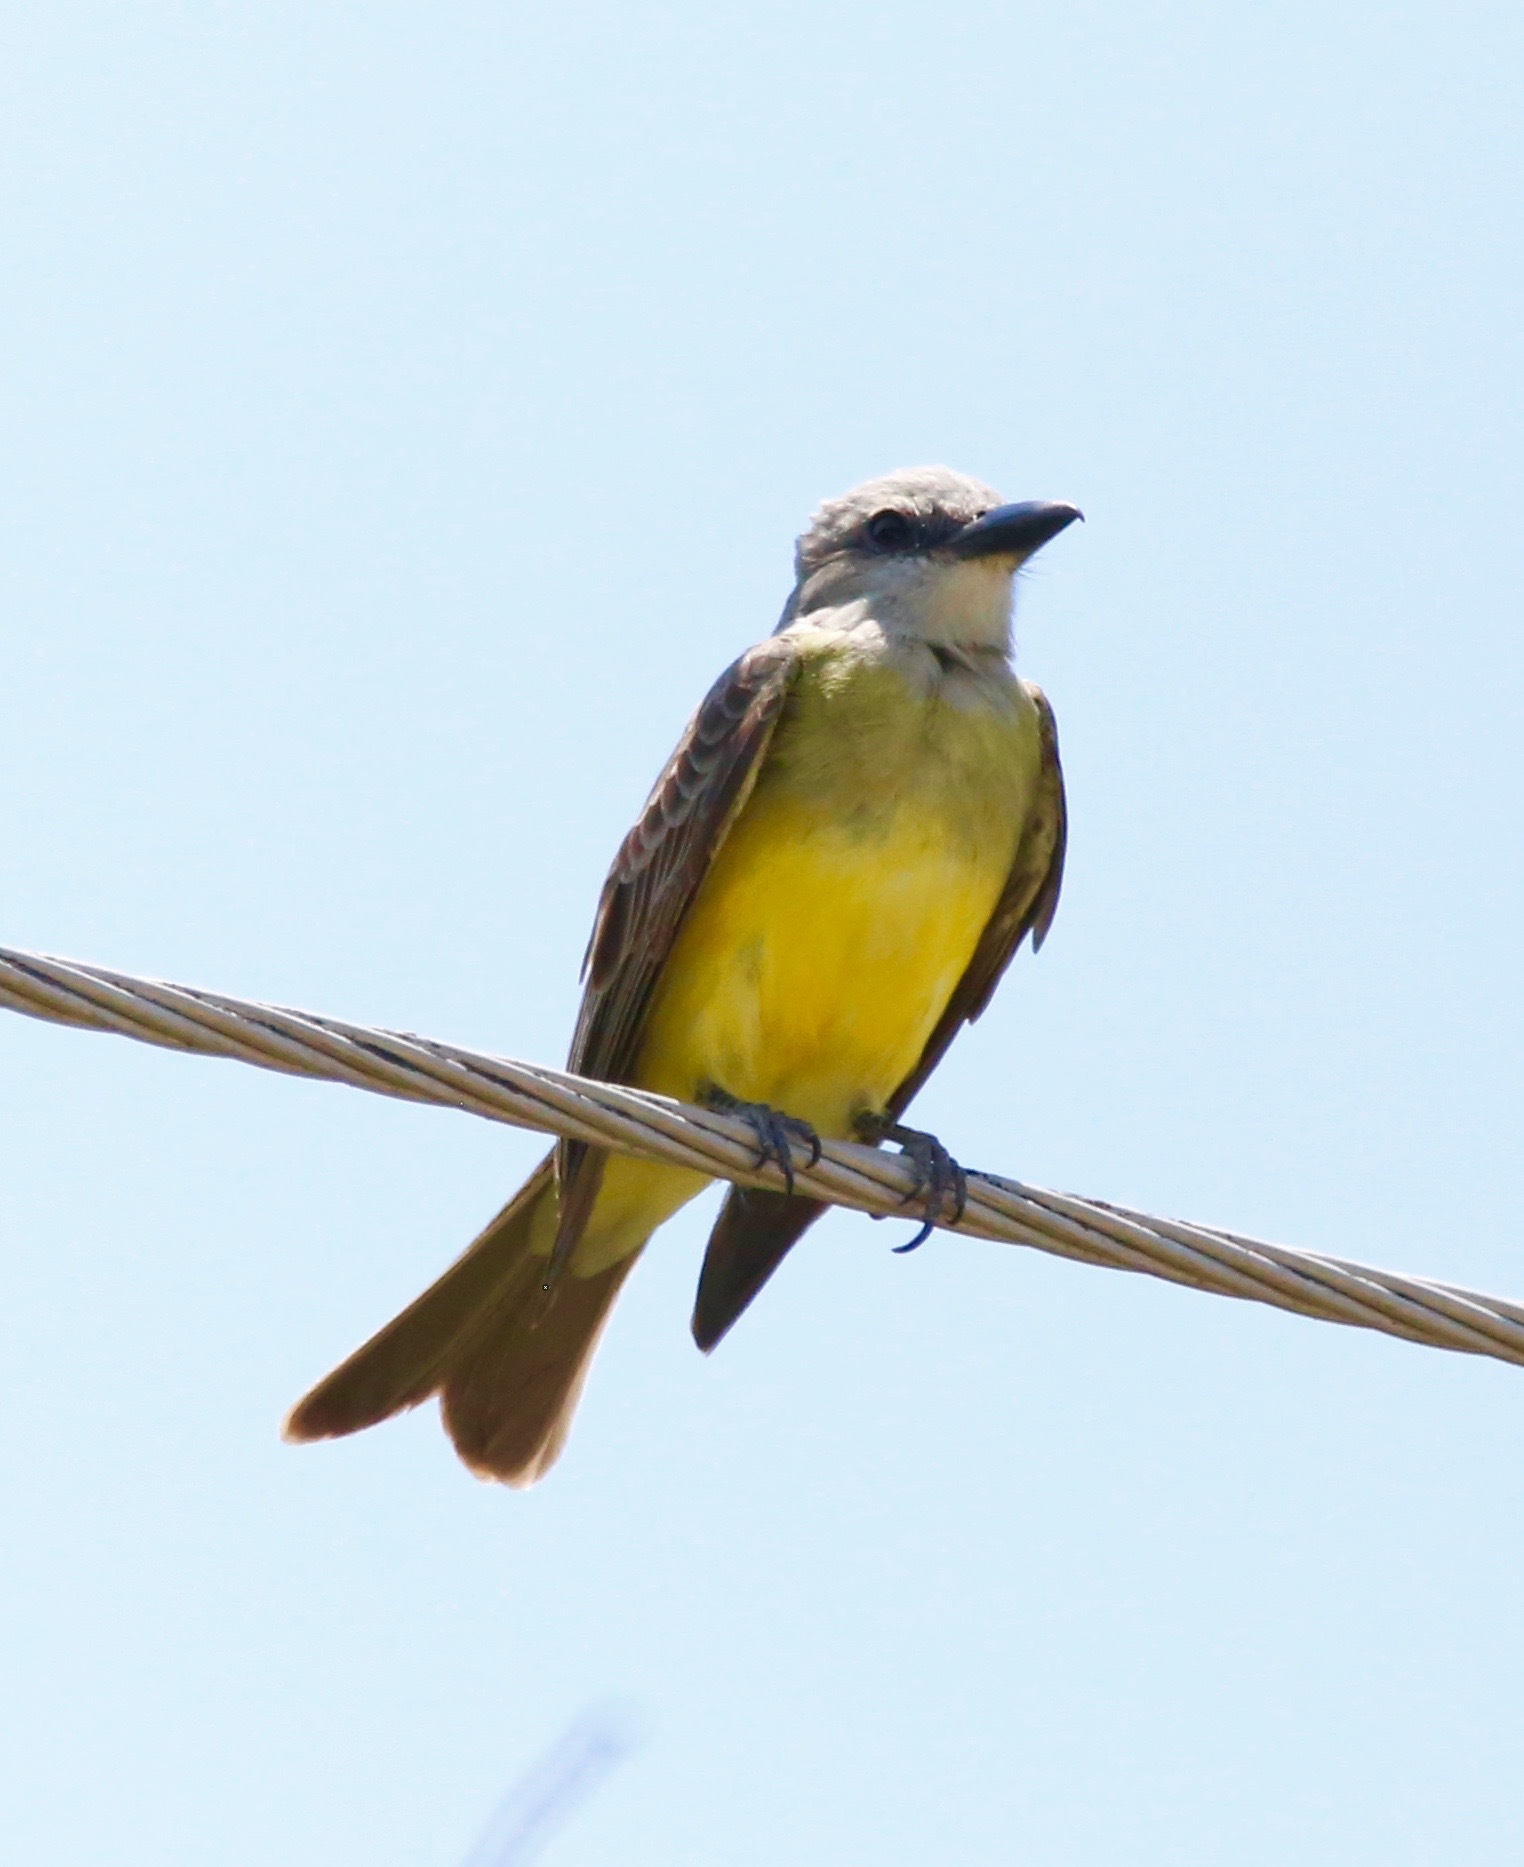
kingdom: Animalia
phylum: Chordata
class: Aves
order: Passeriformes
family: Tyrannidae
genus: Tyrannus
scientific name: Tyrannus melancholicus
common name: Tropical kingbird
